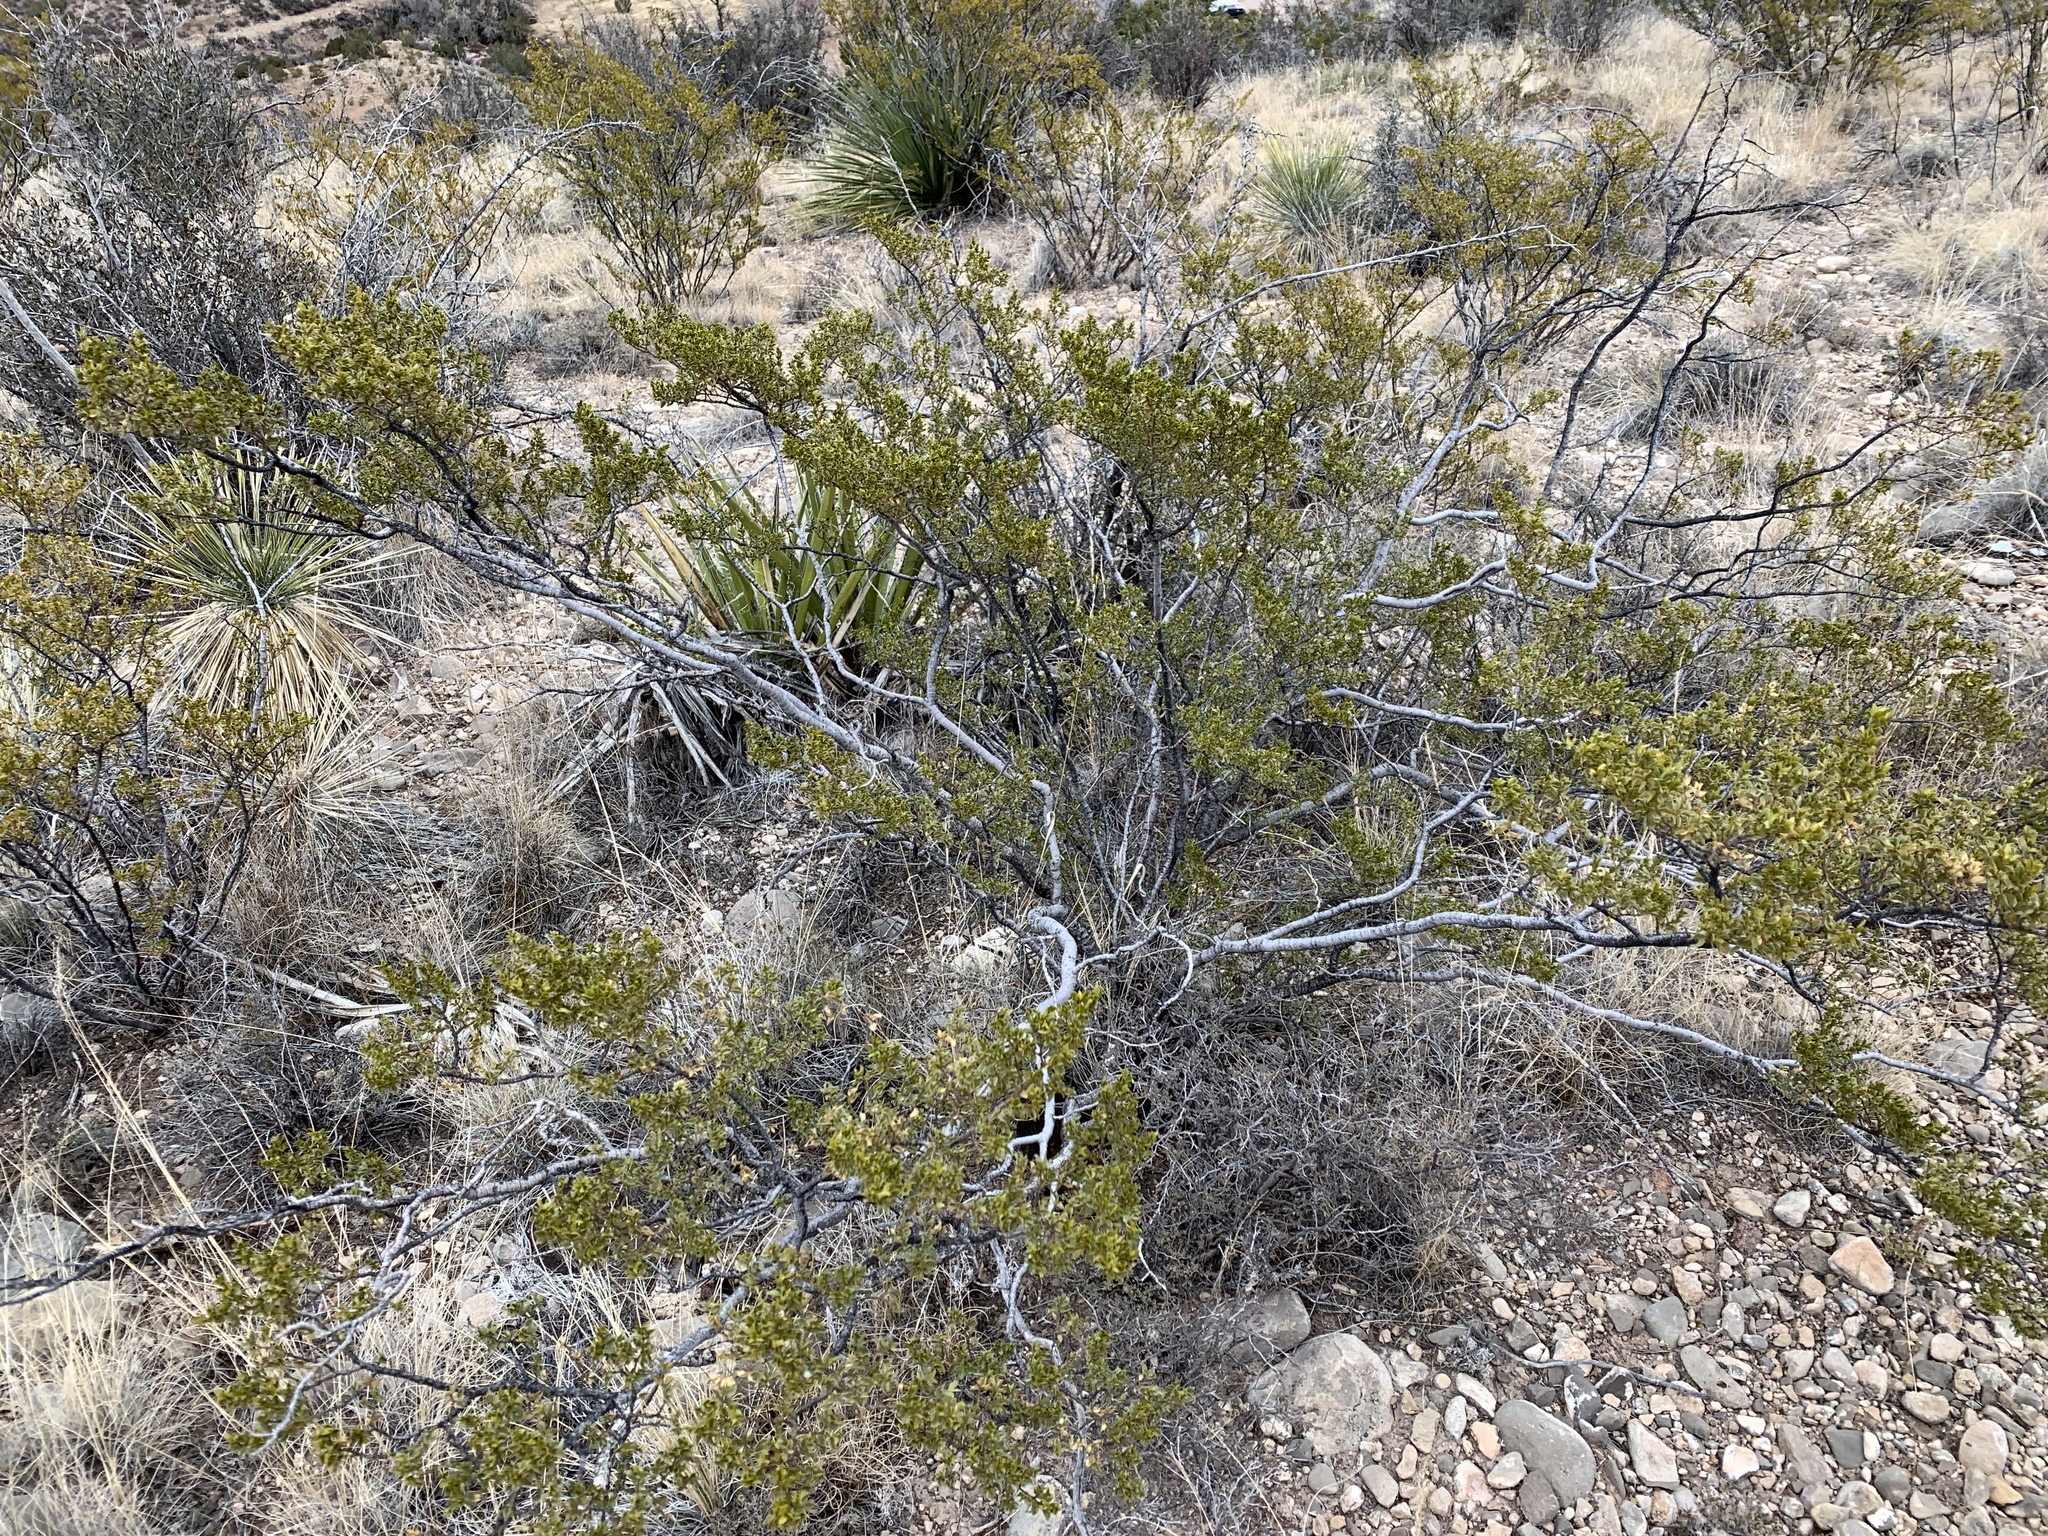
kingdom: Plantae
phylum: Tracheophyta
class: Magnoliopsida
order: Zygophyllales
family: Zygophyllaceae
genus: Larrea
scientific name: Larrea tridentata
